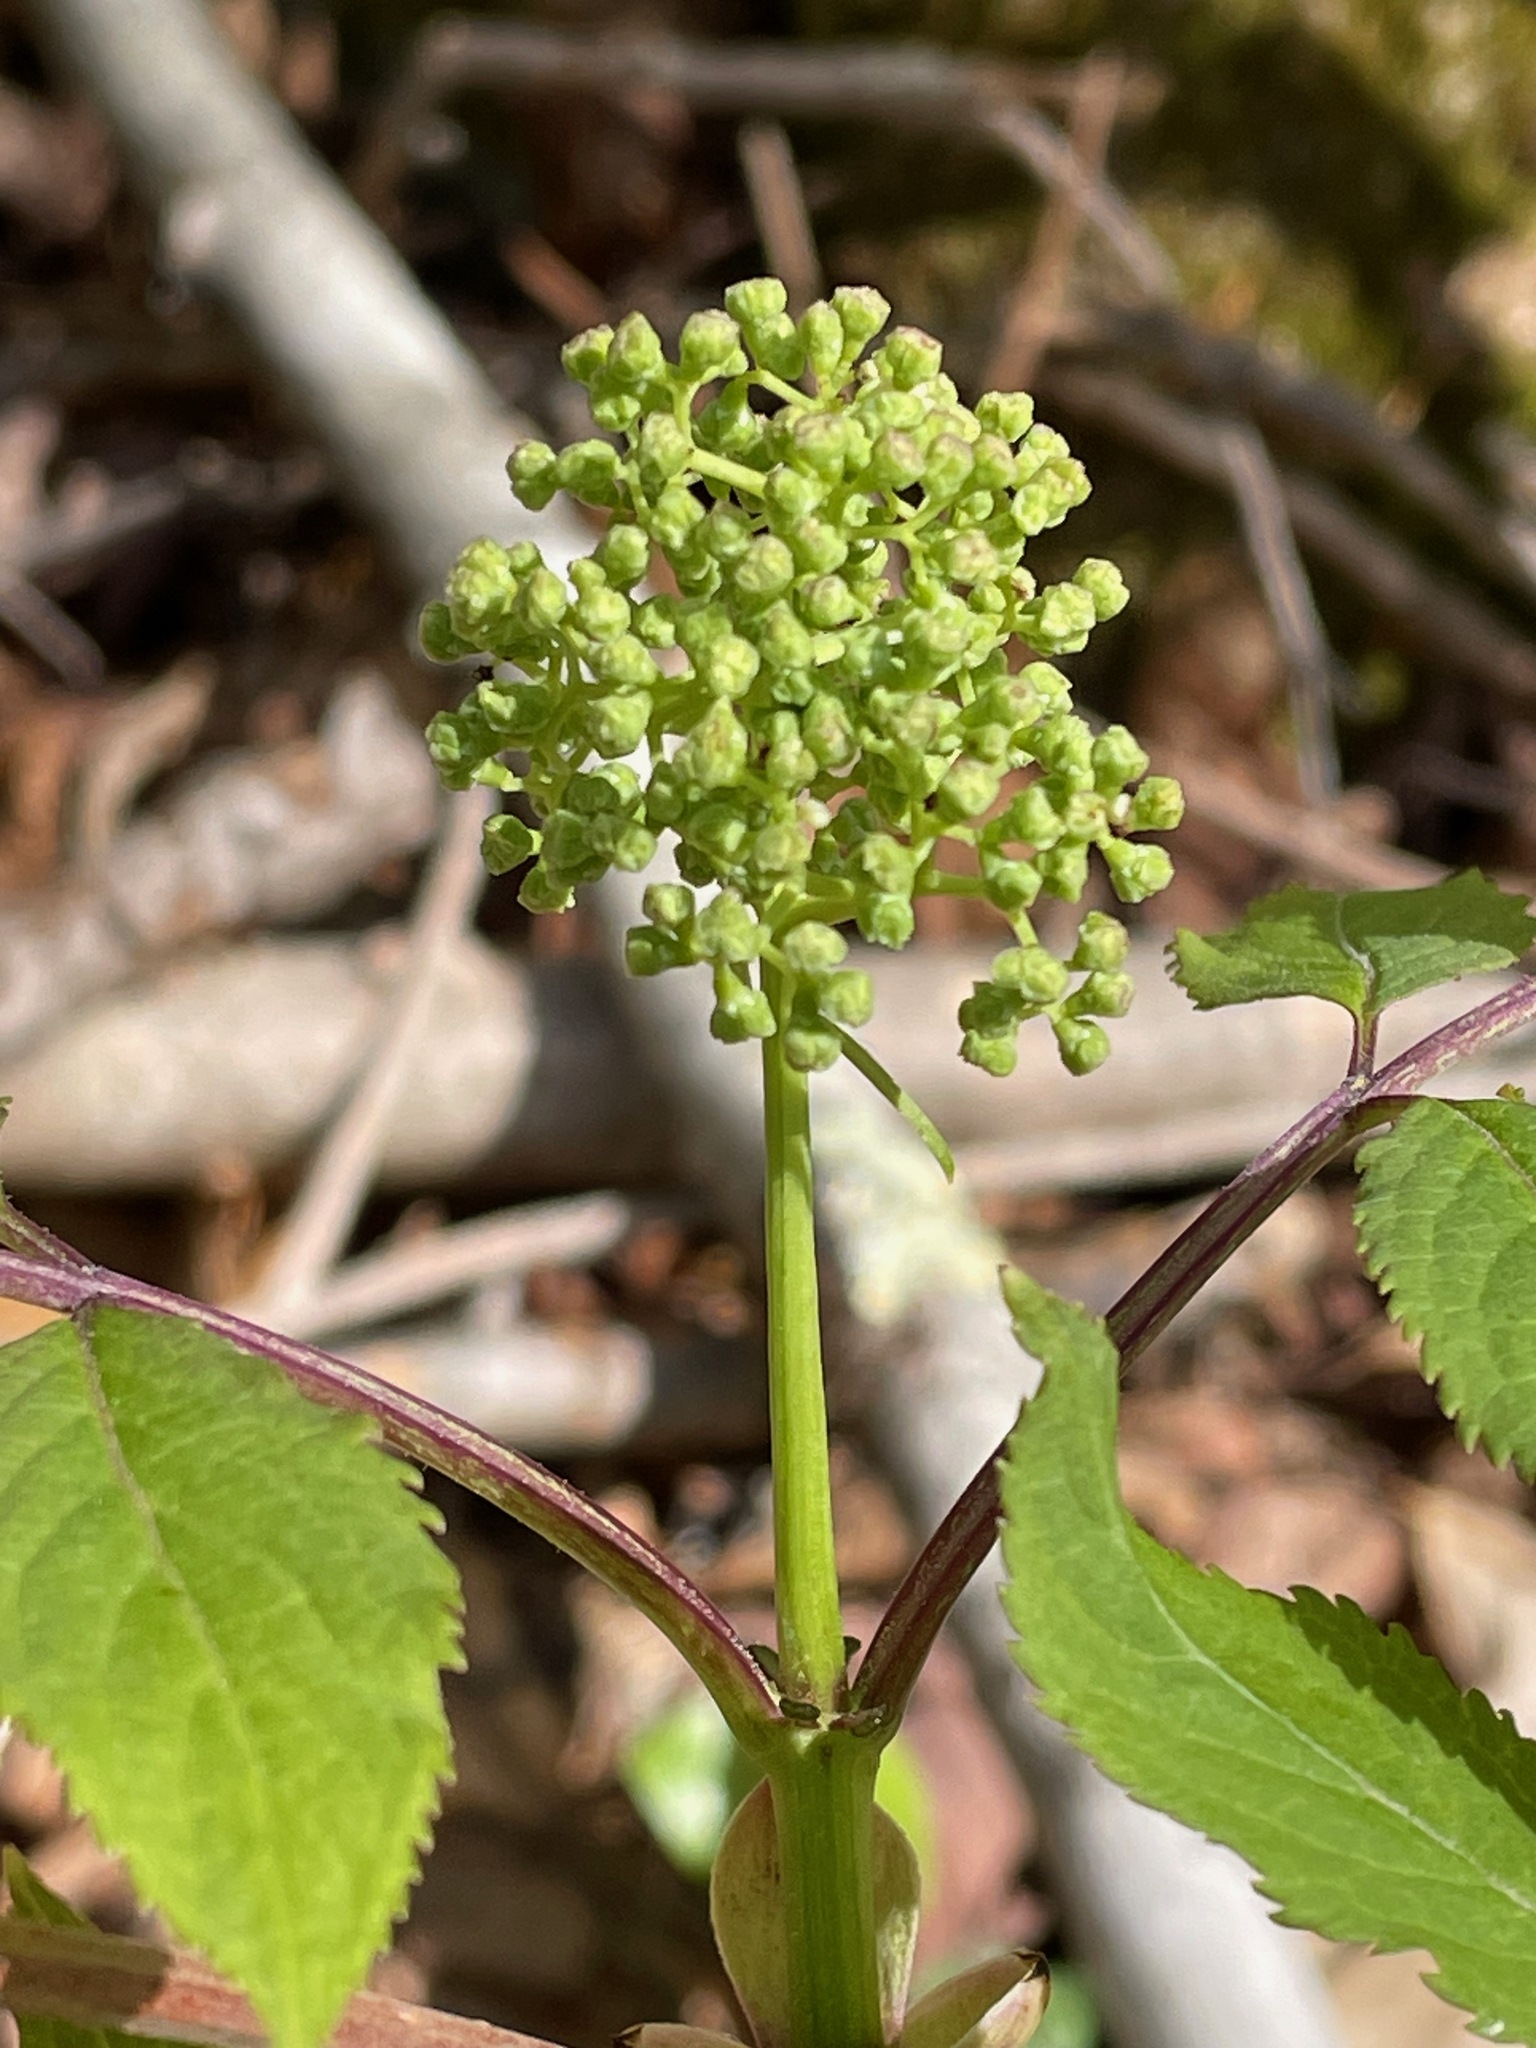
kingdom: Plantae
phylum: Tracheophyta
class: Magnoliopsida
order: Dipsacales
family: Viburnaceae
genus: Sambucus
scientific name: Sambucus racemosa
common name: Red-berried elder
